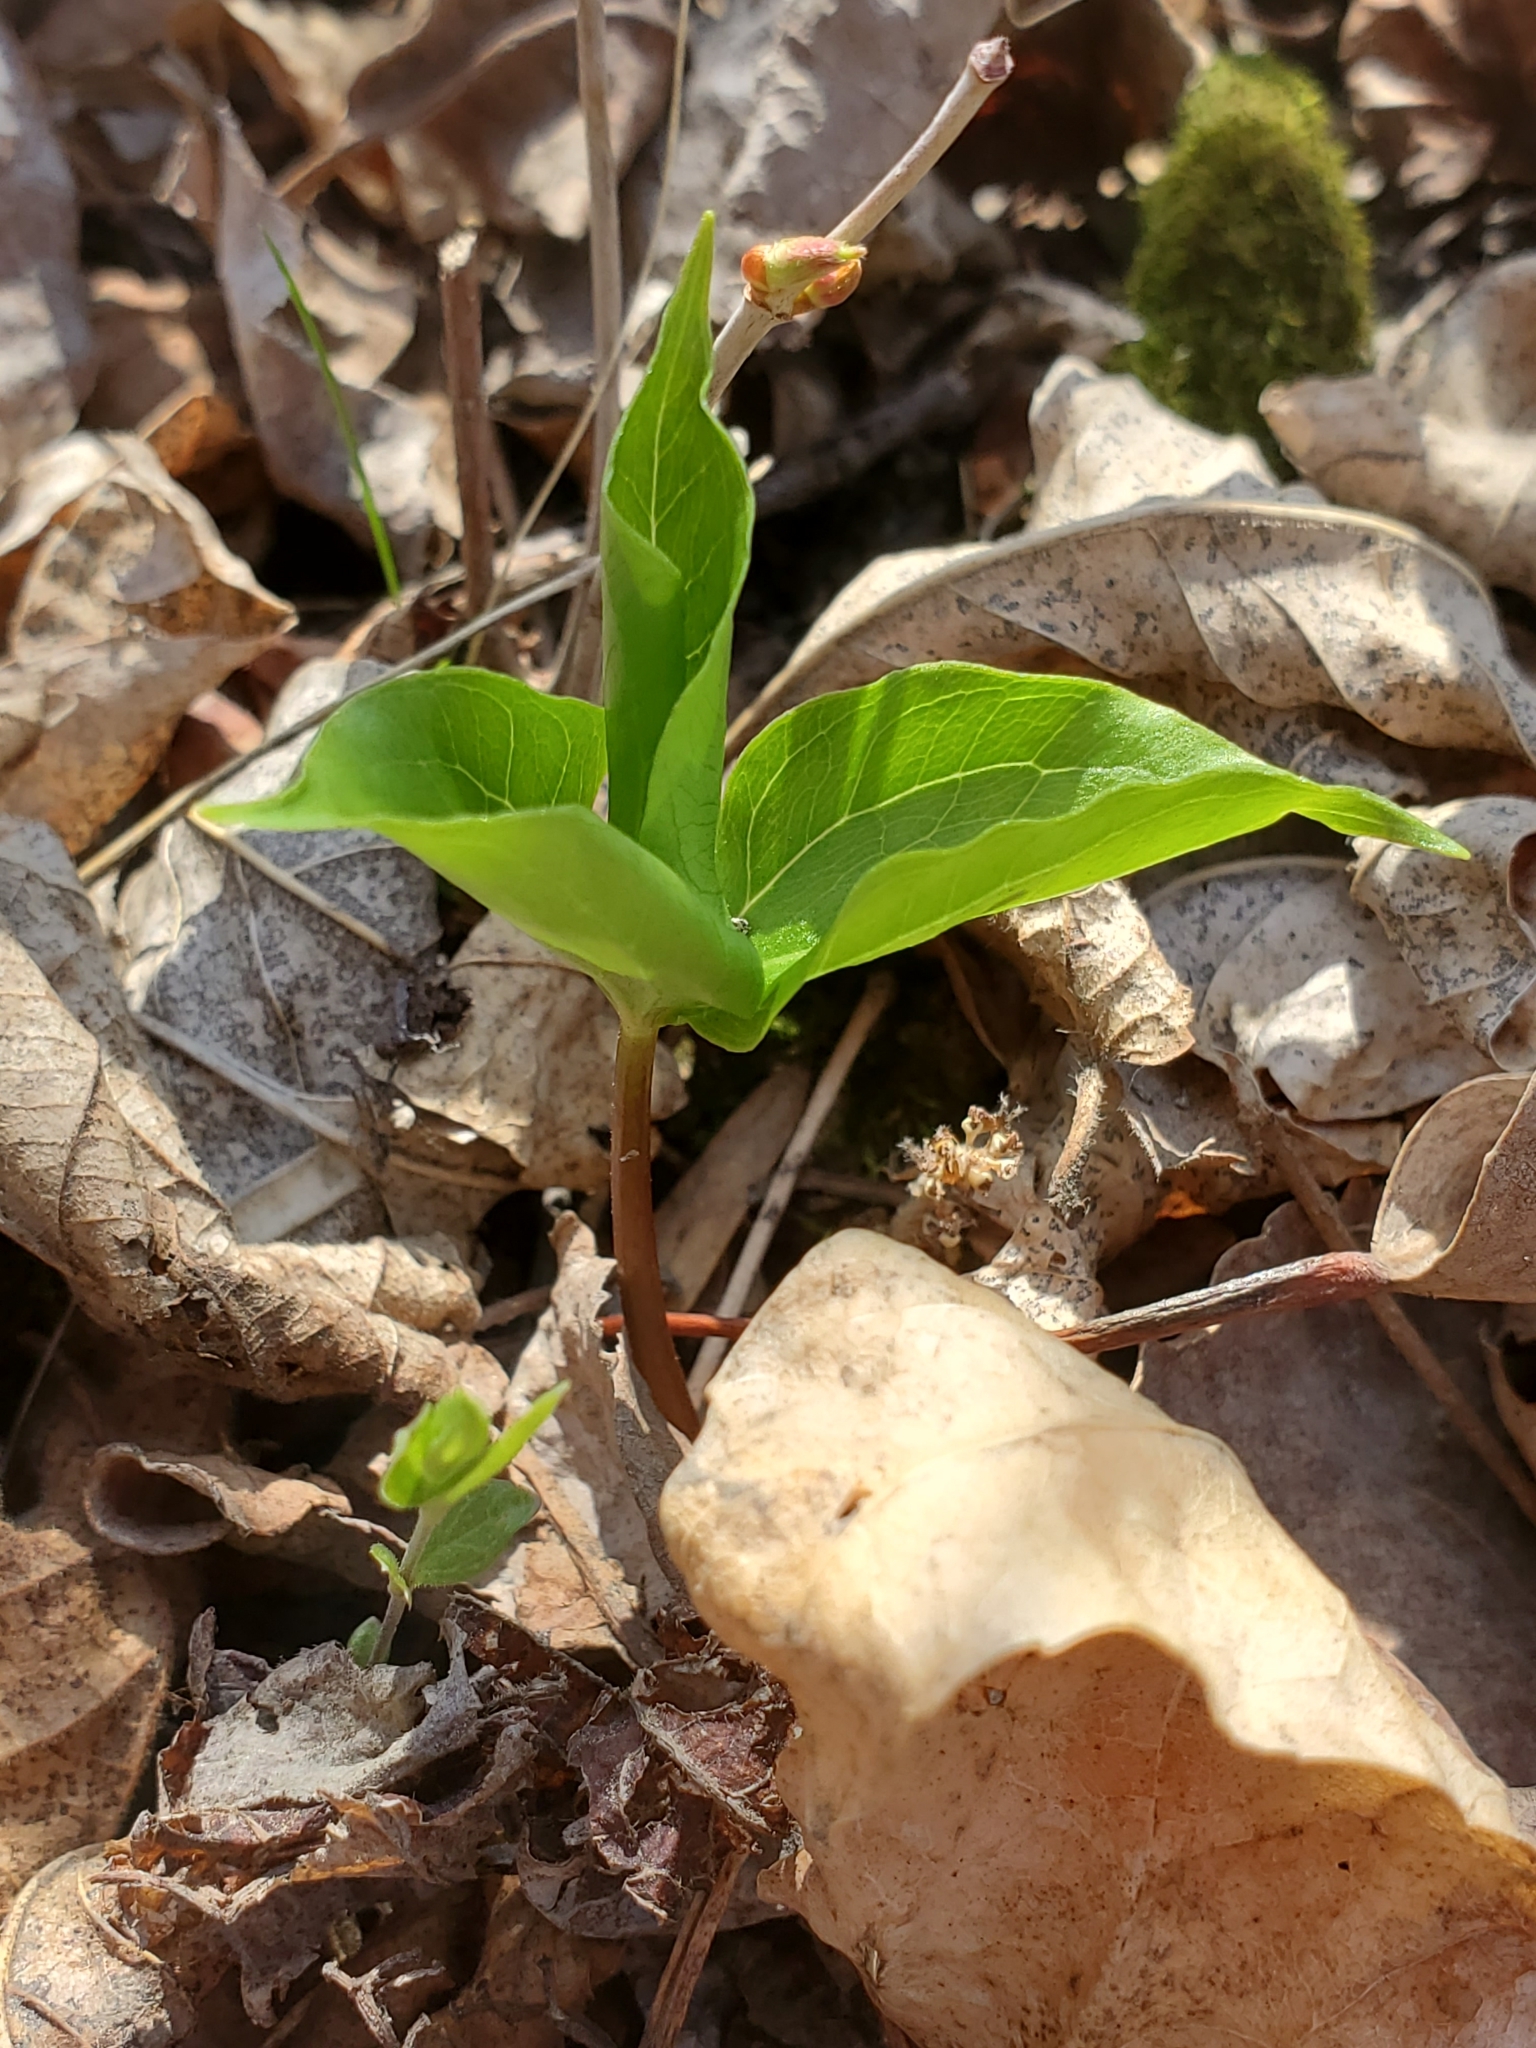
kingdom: Plantae
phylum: Tracheophyta
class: Liliopsida
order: Liliales
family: Melanthiaceae
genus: Trillium
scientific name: Trillium cernuum
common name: Nodding trillium
